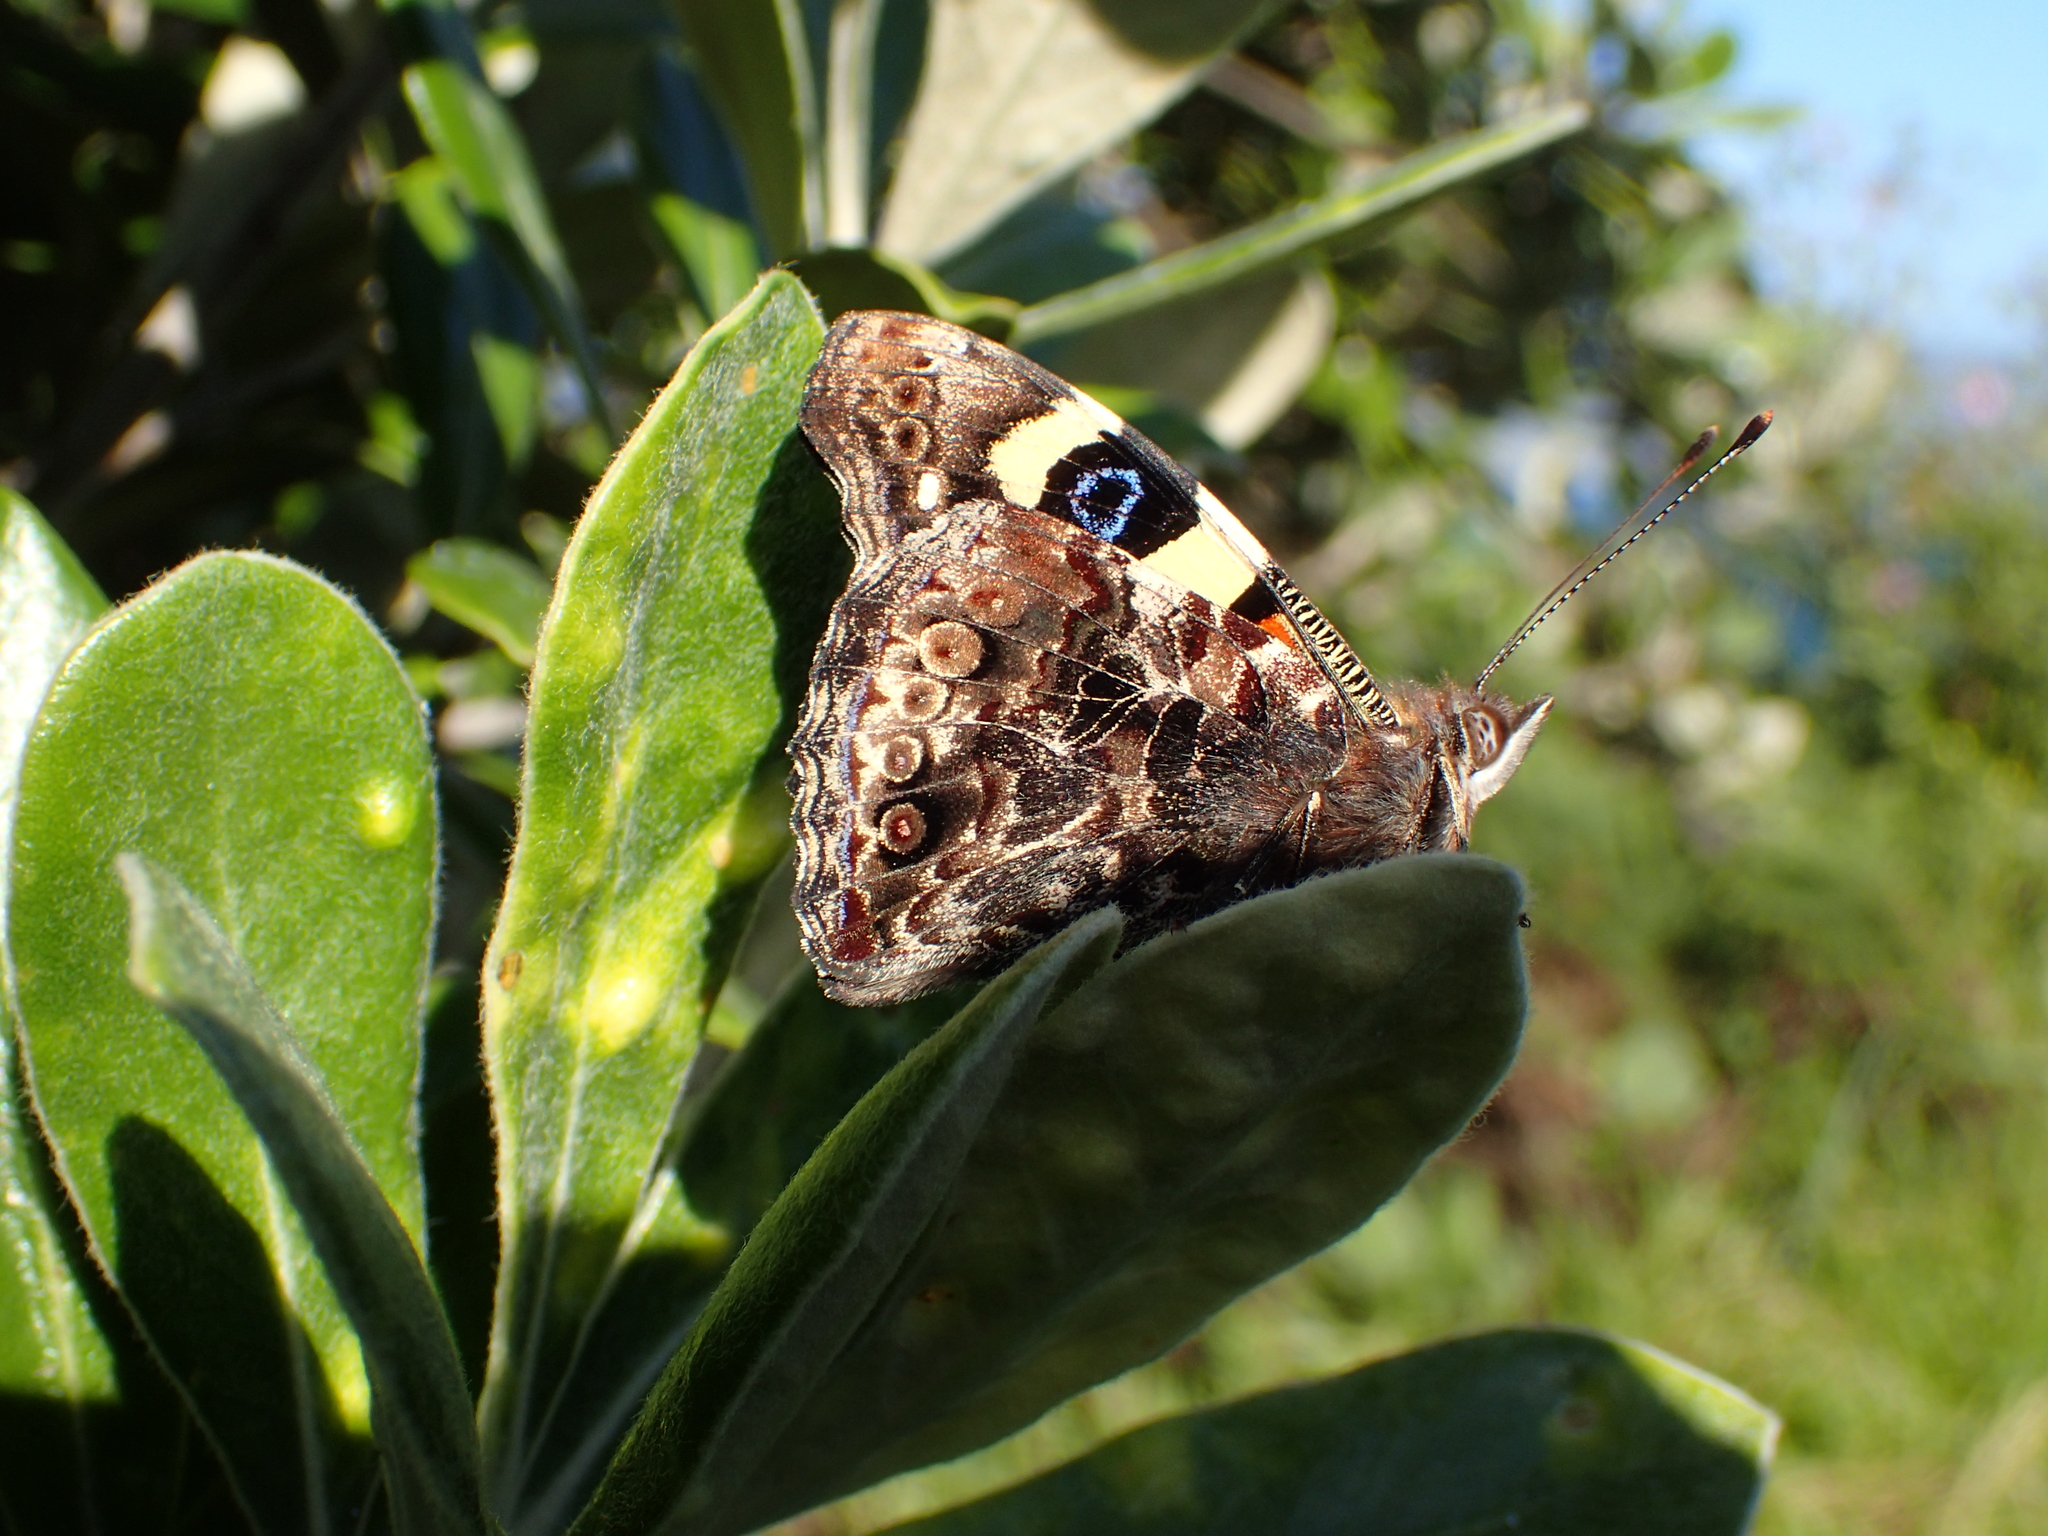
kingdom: Animalia
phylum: Arthropoda
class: Insecta
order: Lepidoptera
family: Nymphalidae
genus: Vanessa
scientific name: Vanessa itea
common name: Yellow admiral
